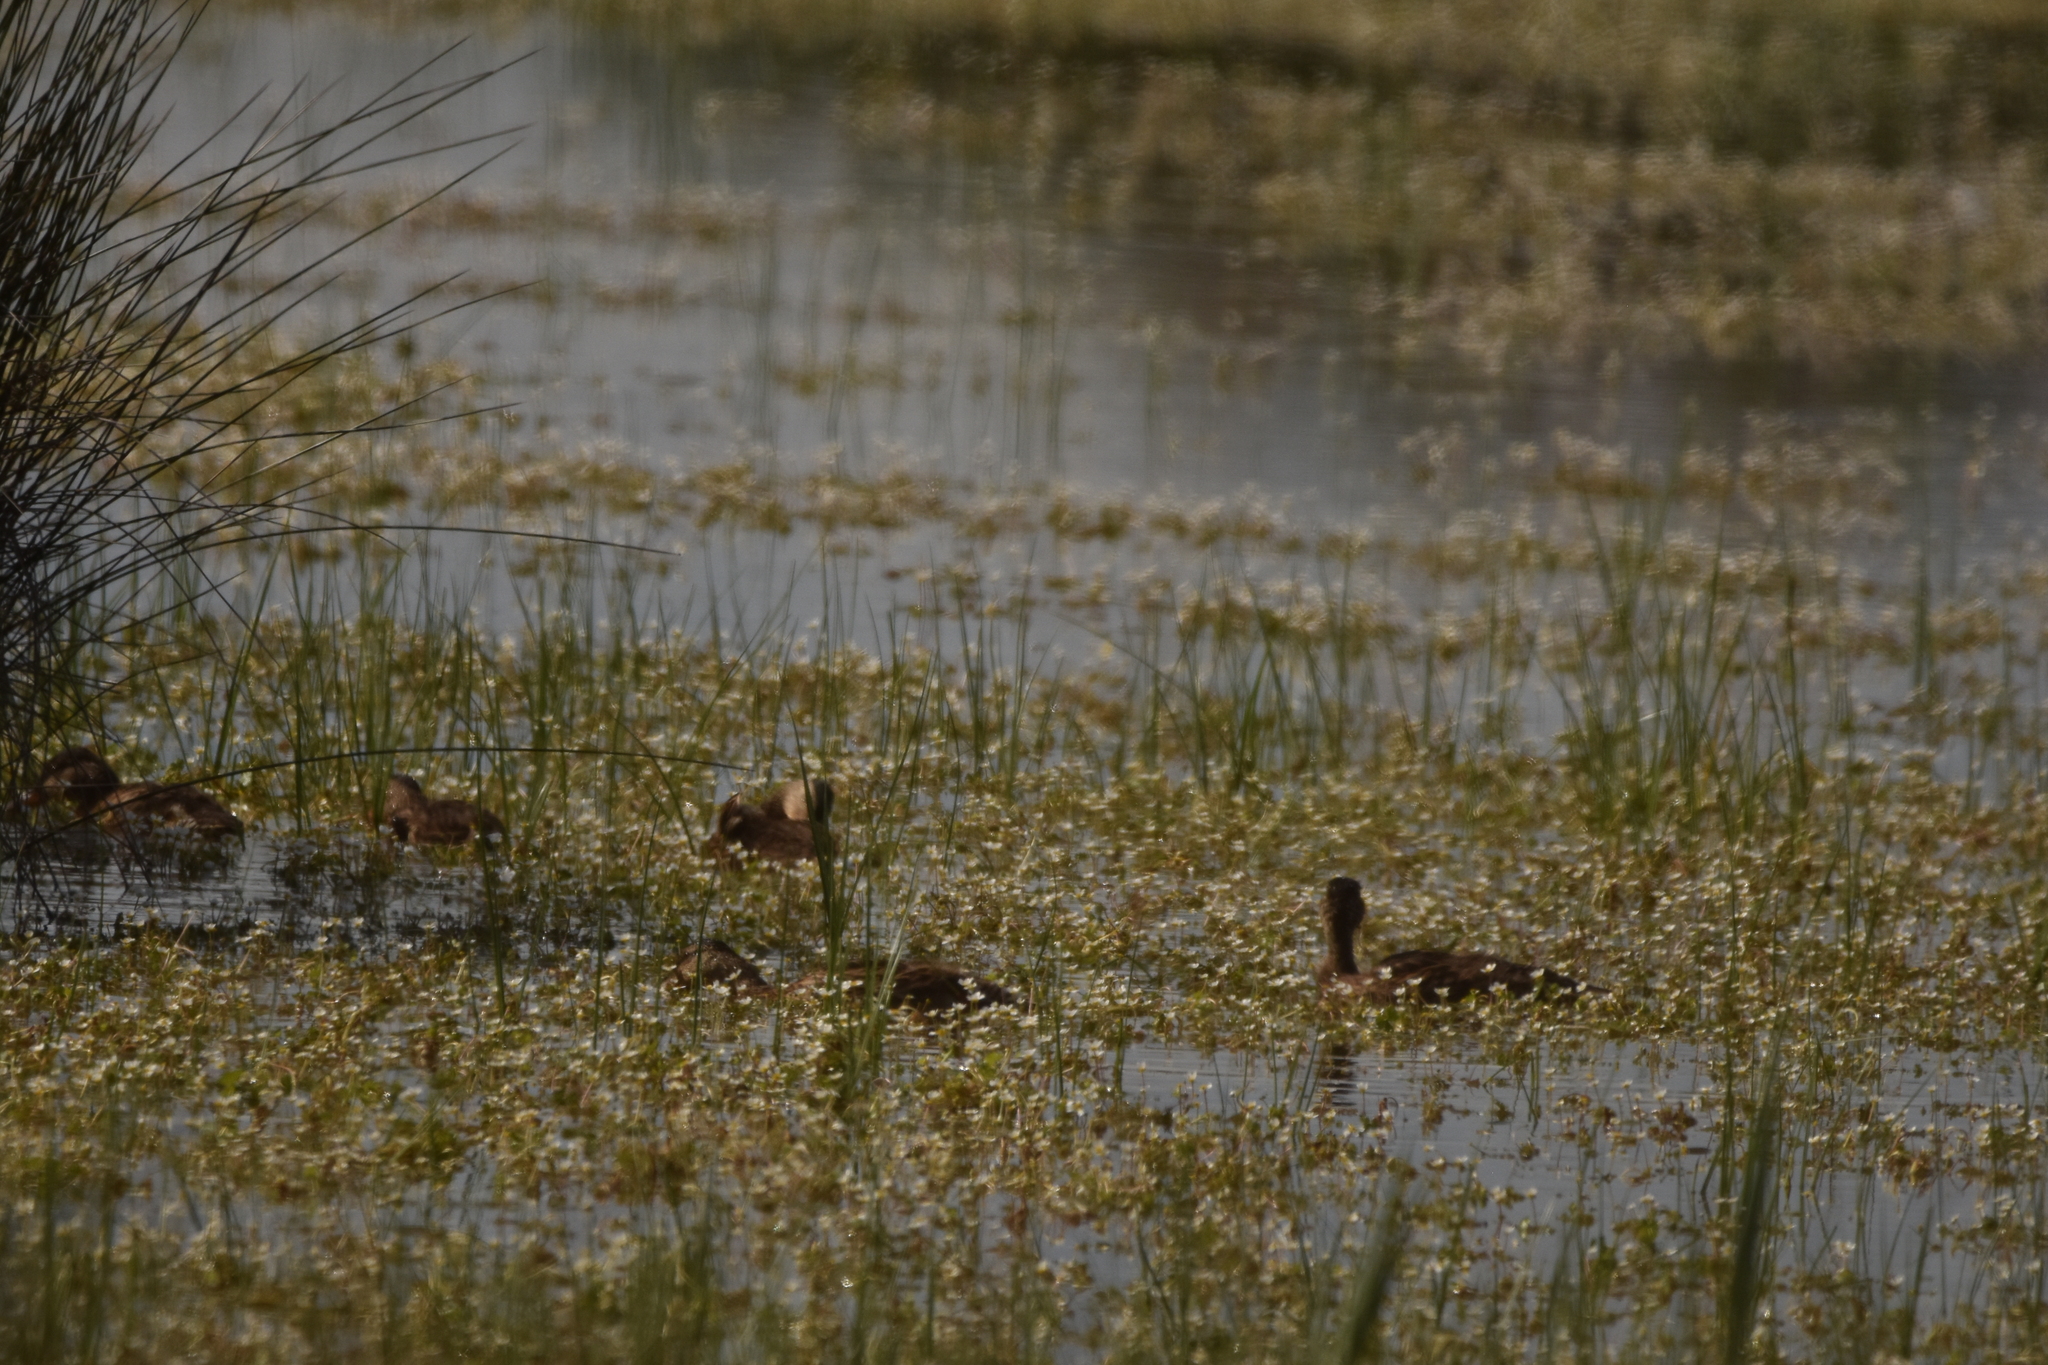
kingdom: Animalia
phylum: Chordata
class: Aves
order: Anseriformes
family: Anatidae
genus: Anas
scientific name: Anas platyrhynchos
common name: Mallard
